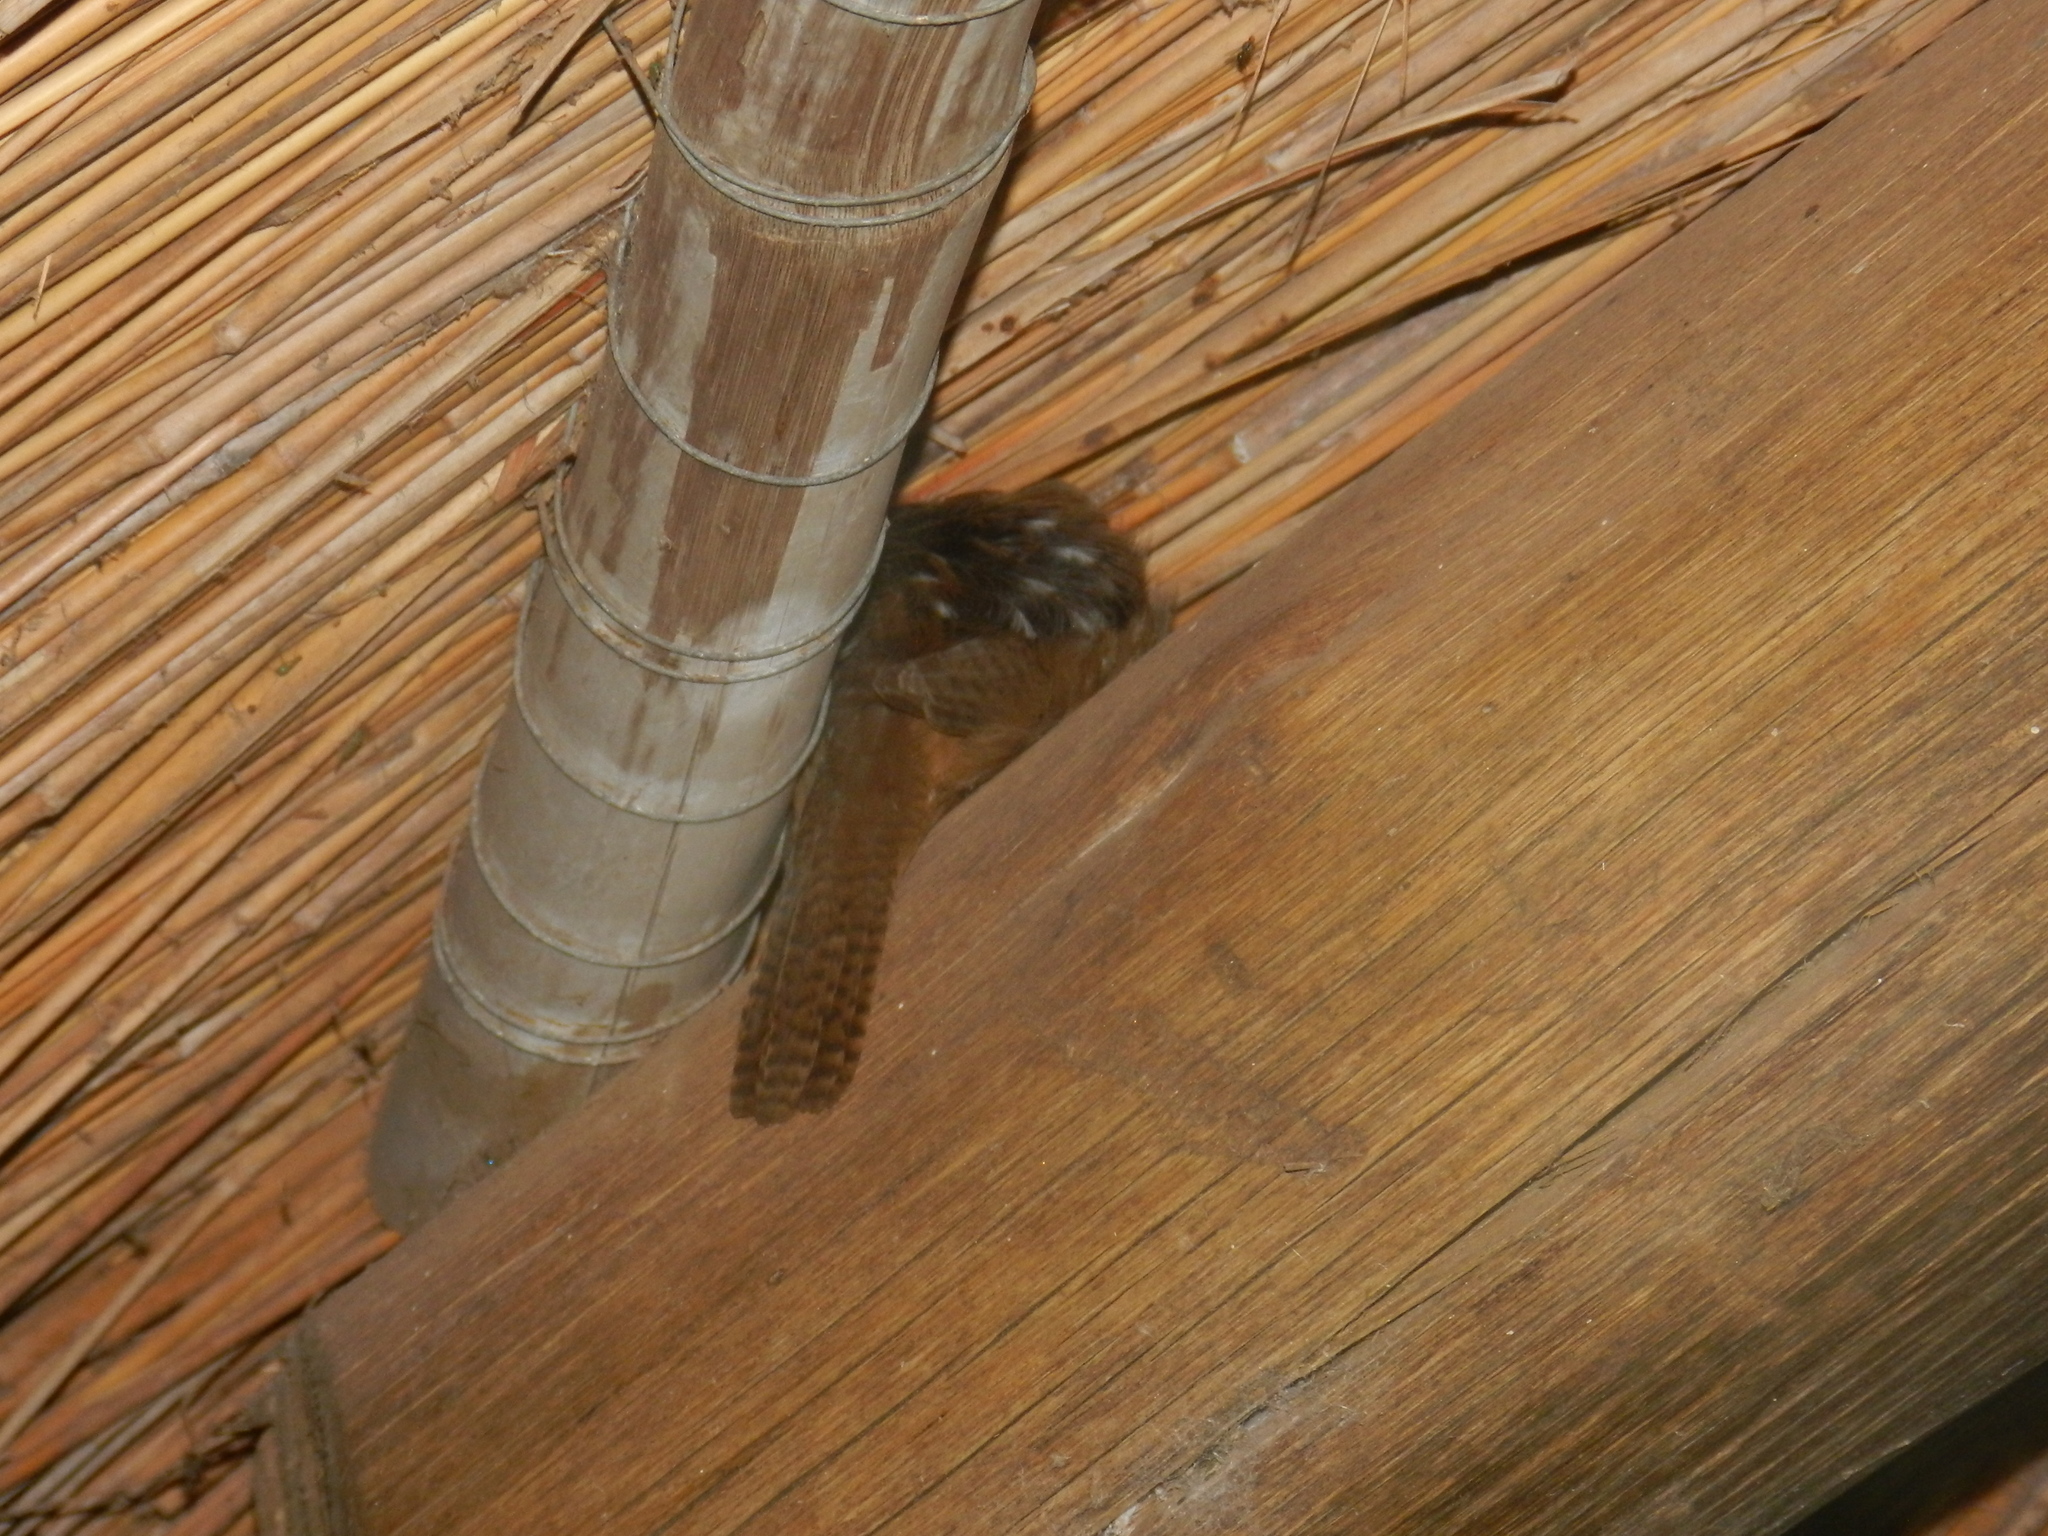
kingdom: Animalia
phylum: Chordata
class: Aves
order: Passeriformes
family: Troglodytidae
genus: Troglodytes
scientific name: Troglodytes aedon
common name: House wren
